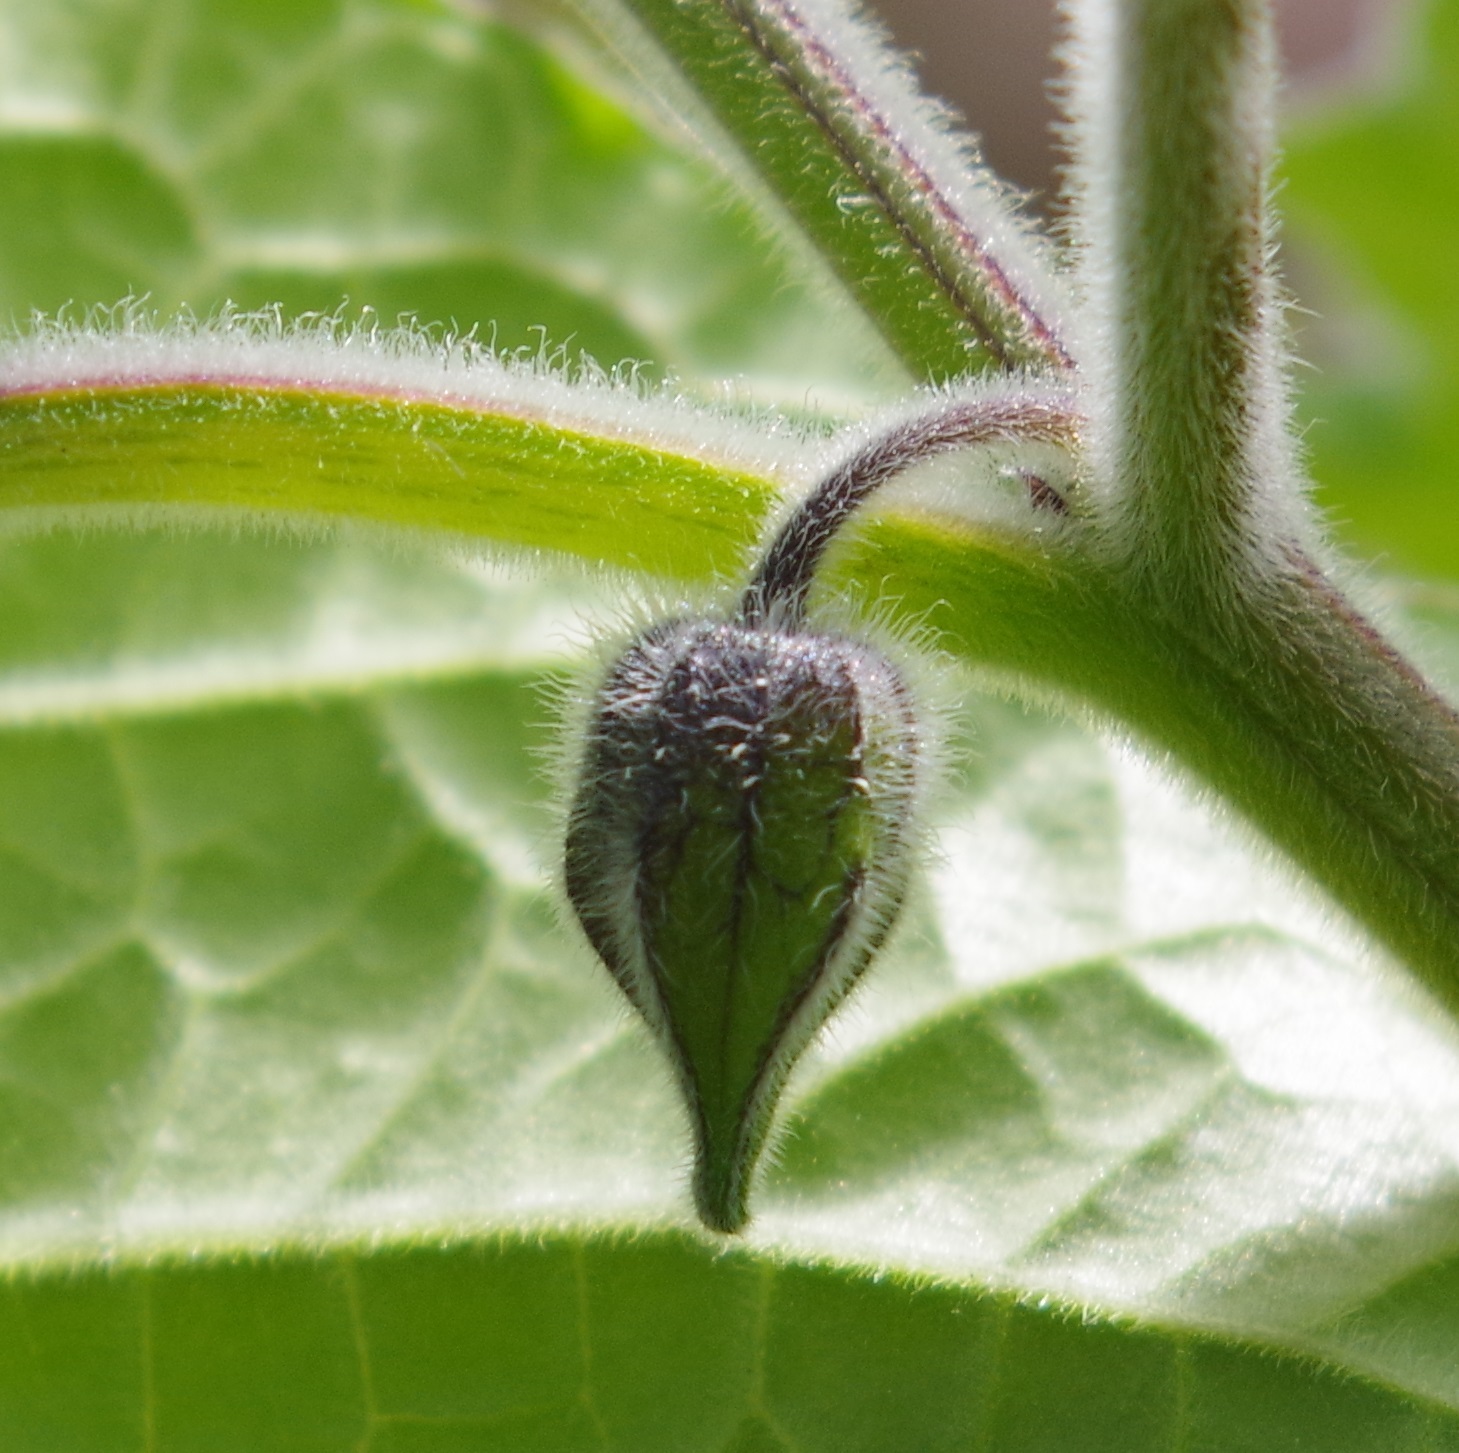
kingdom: Plantae
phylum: Tracheophyta
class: Magnoliopsida
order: Solanales
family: Solanaceae
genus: Physalis
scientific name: Physalis peruviana
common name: Cape-gooseberry
